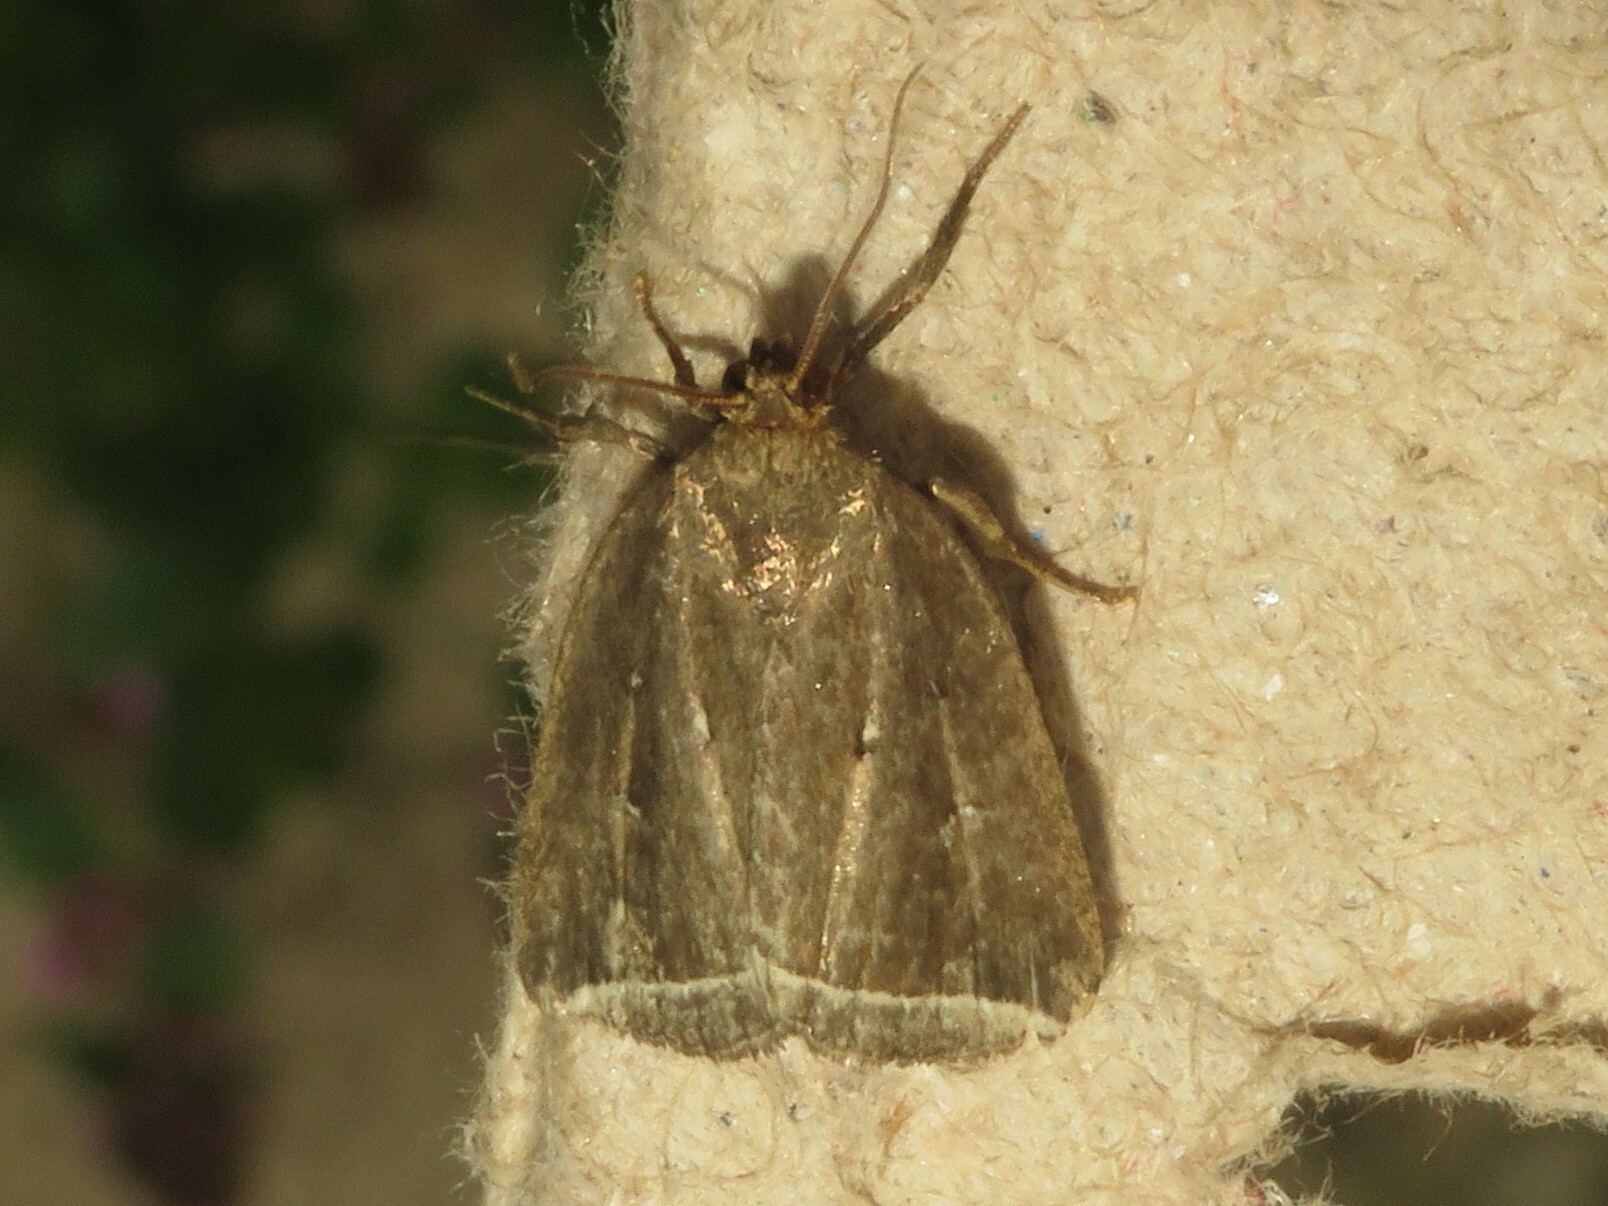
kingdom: Animalia
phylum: Arthropoda
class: Insecta
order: Lepidoptera
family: Erebidae
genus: Capis
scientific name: Capis curvata
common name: Curved halter moth
